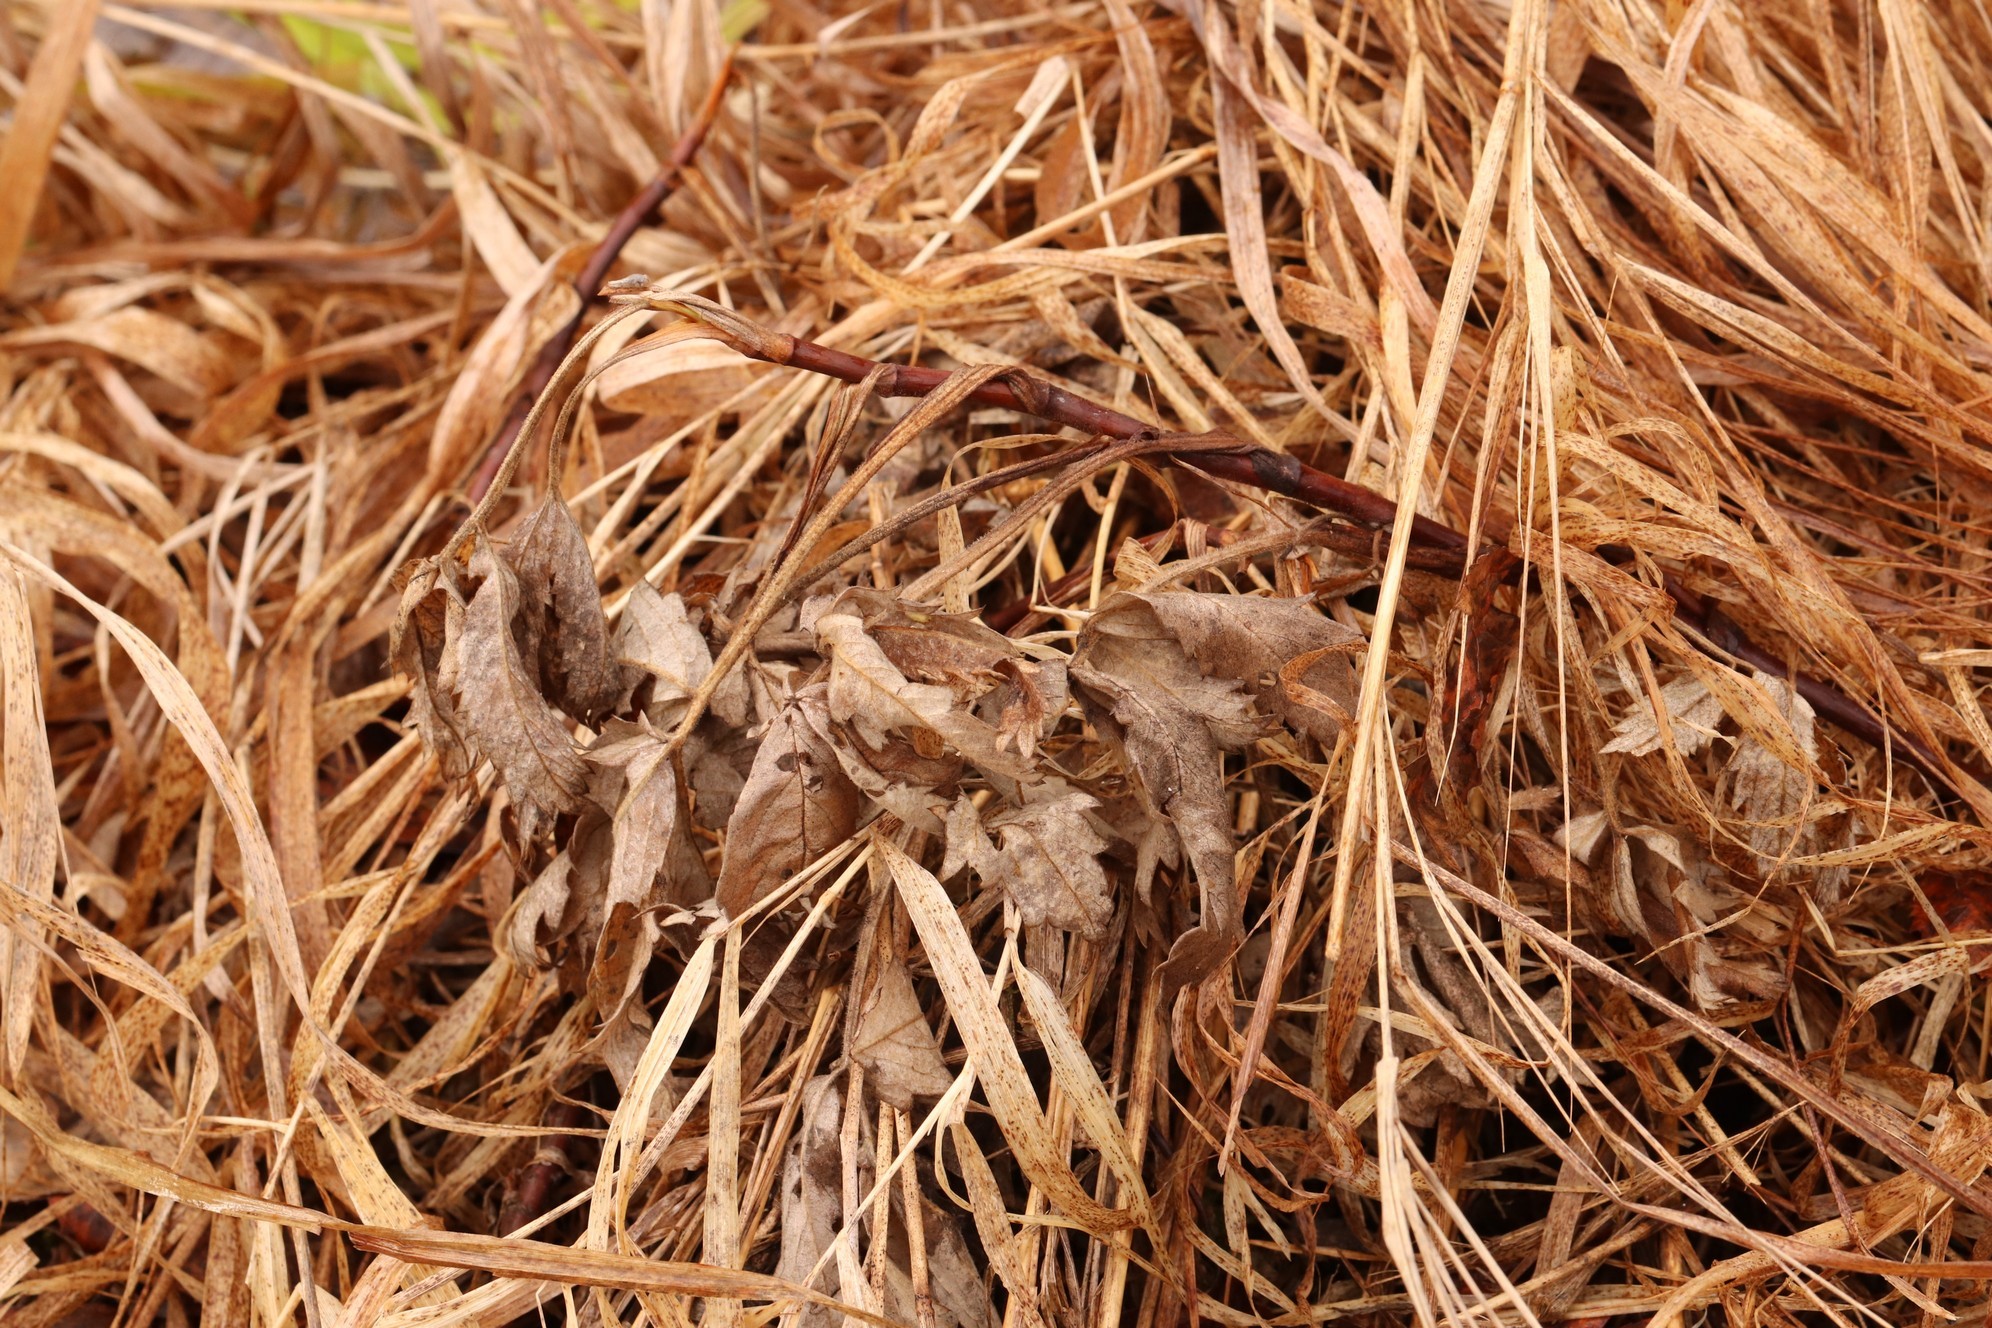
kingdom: Plantae
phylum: Tracheophyta
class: Magnoliopsida
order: Rosales
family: Rosaceae
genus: Comarum
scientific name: Comarum palustre
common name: Marsh cinquefoil
